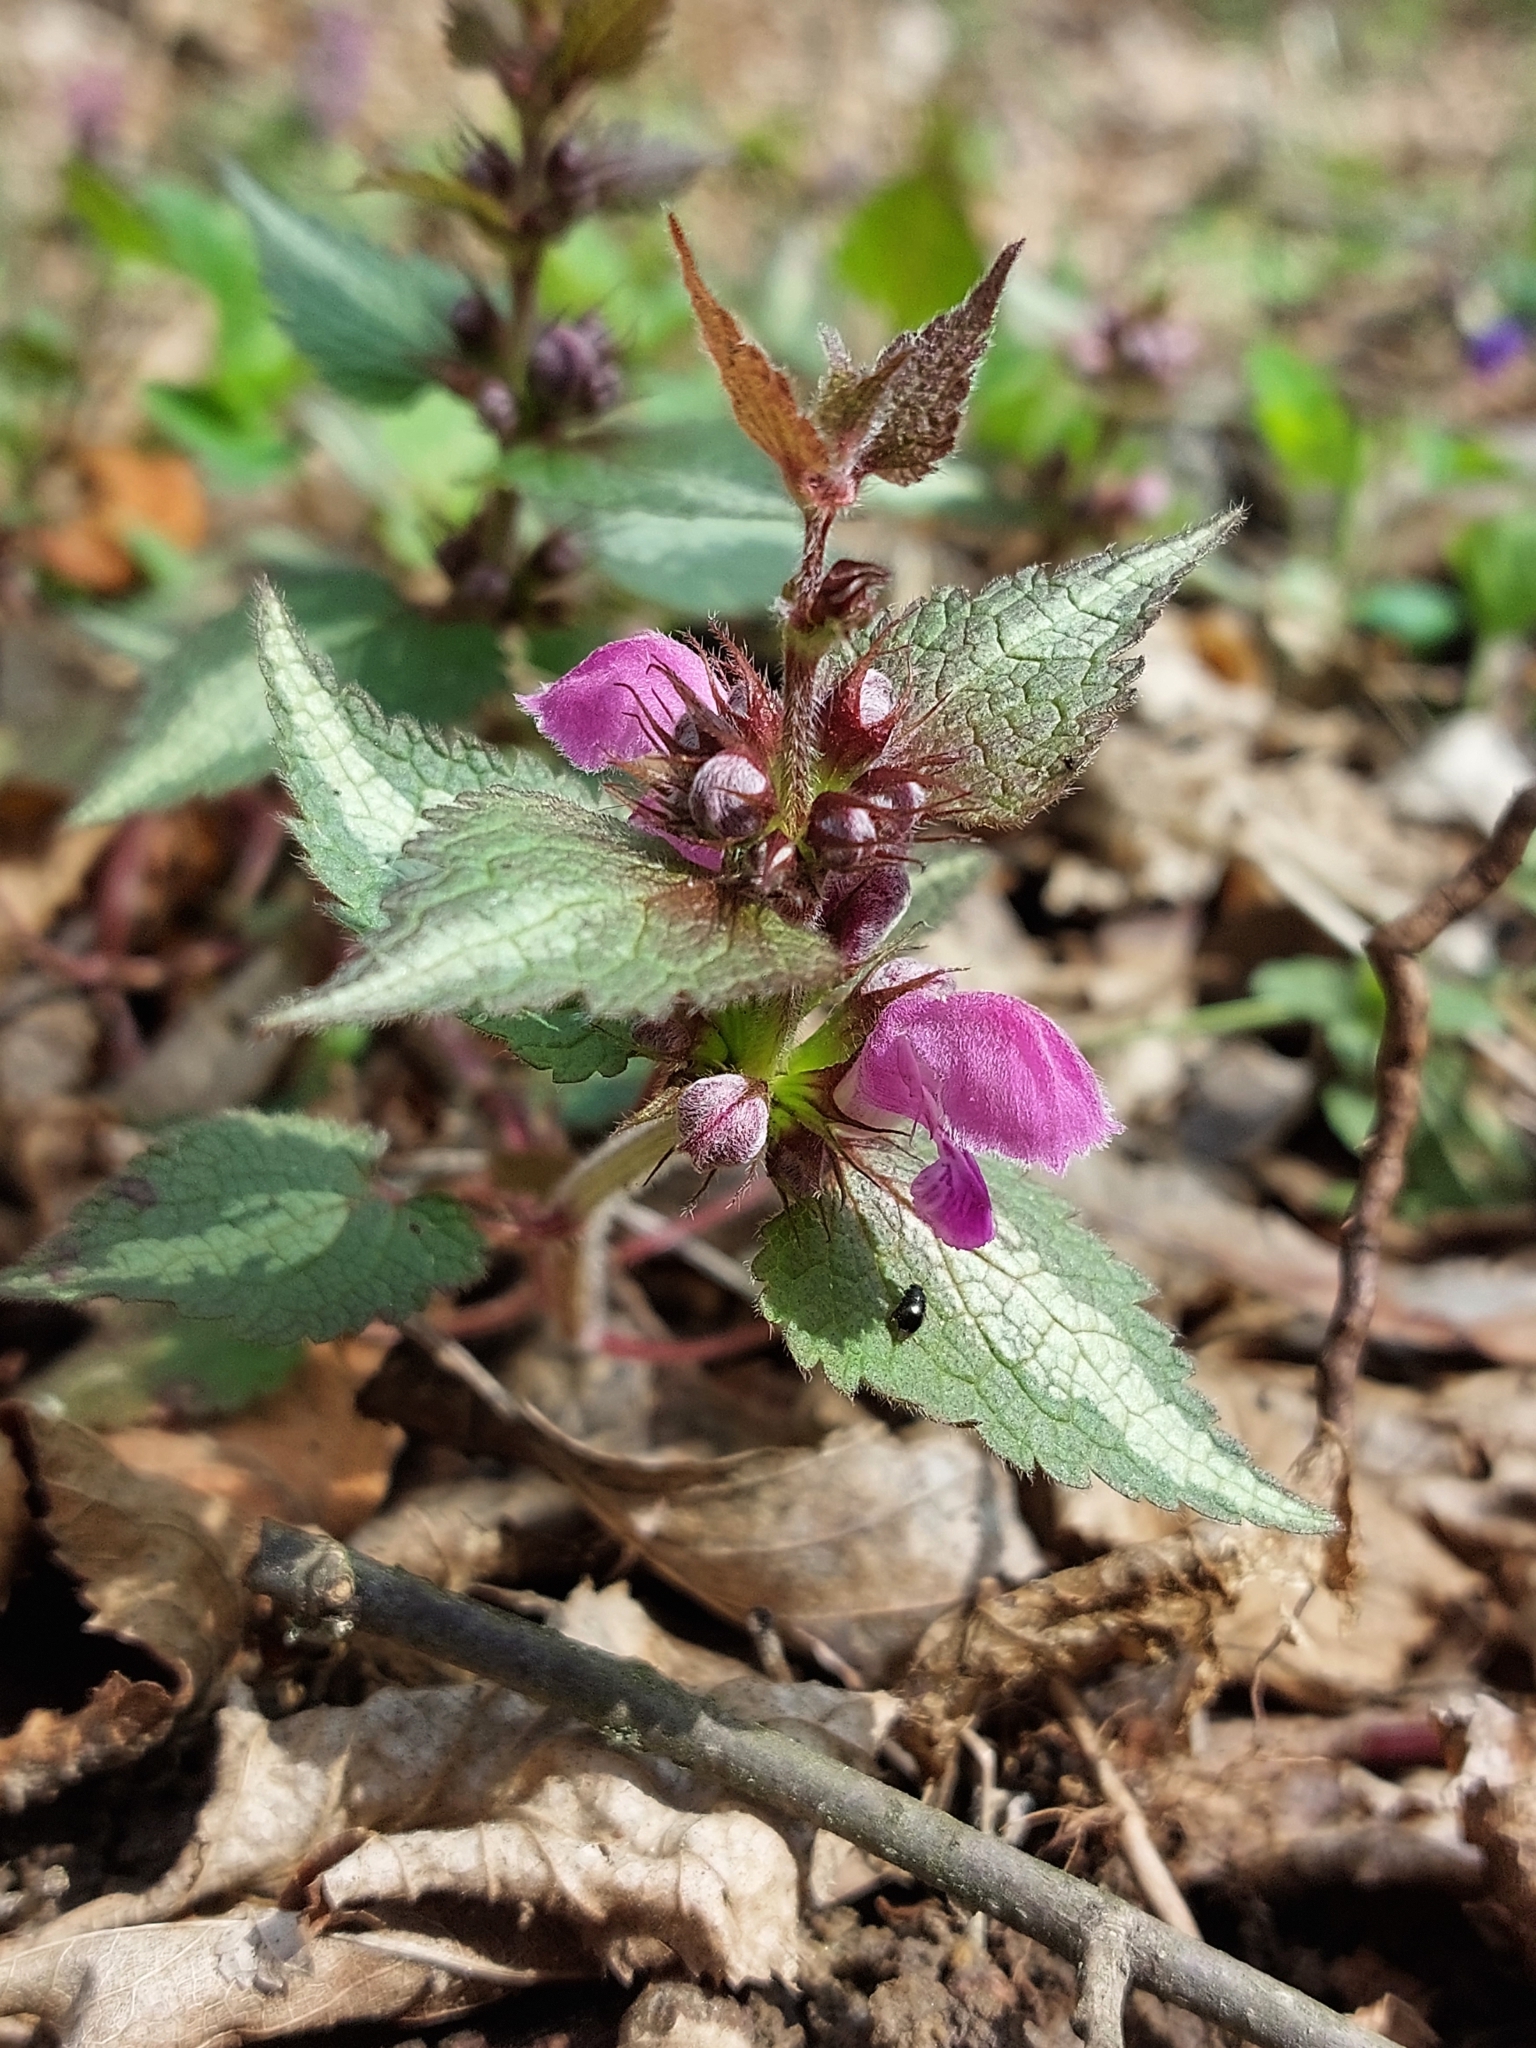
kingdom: Plantae
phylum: Tracheophyta
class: Magnoliopsida
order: Lamiales
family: Lamiaceae
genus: Lamium
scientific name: Lamium maculatum
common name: Spotted dead-nettle
